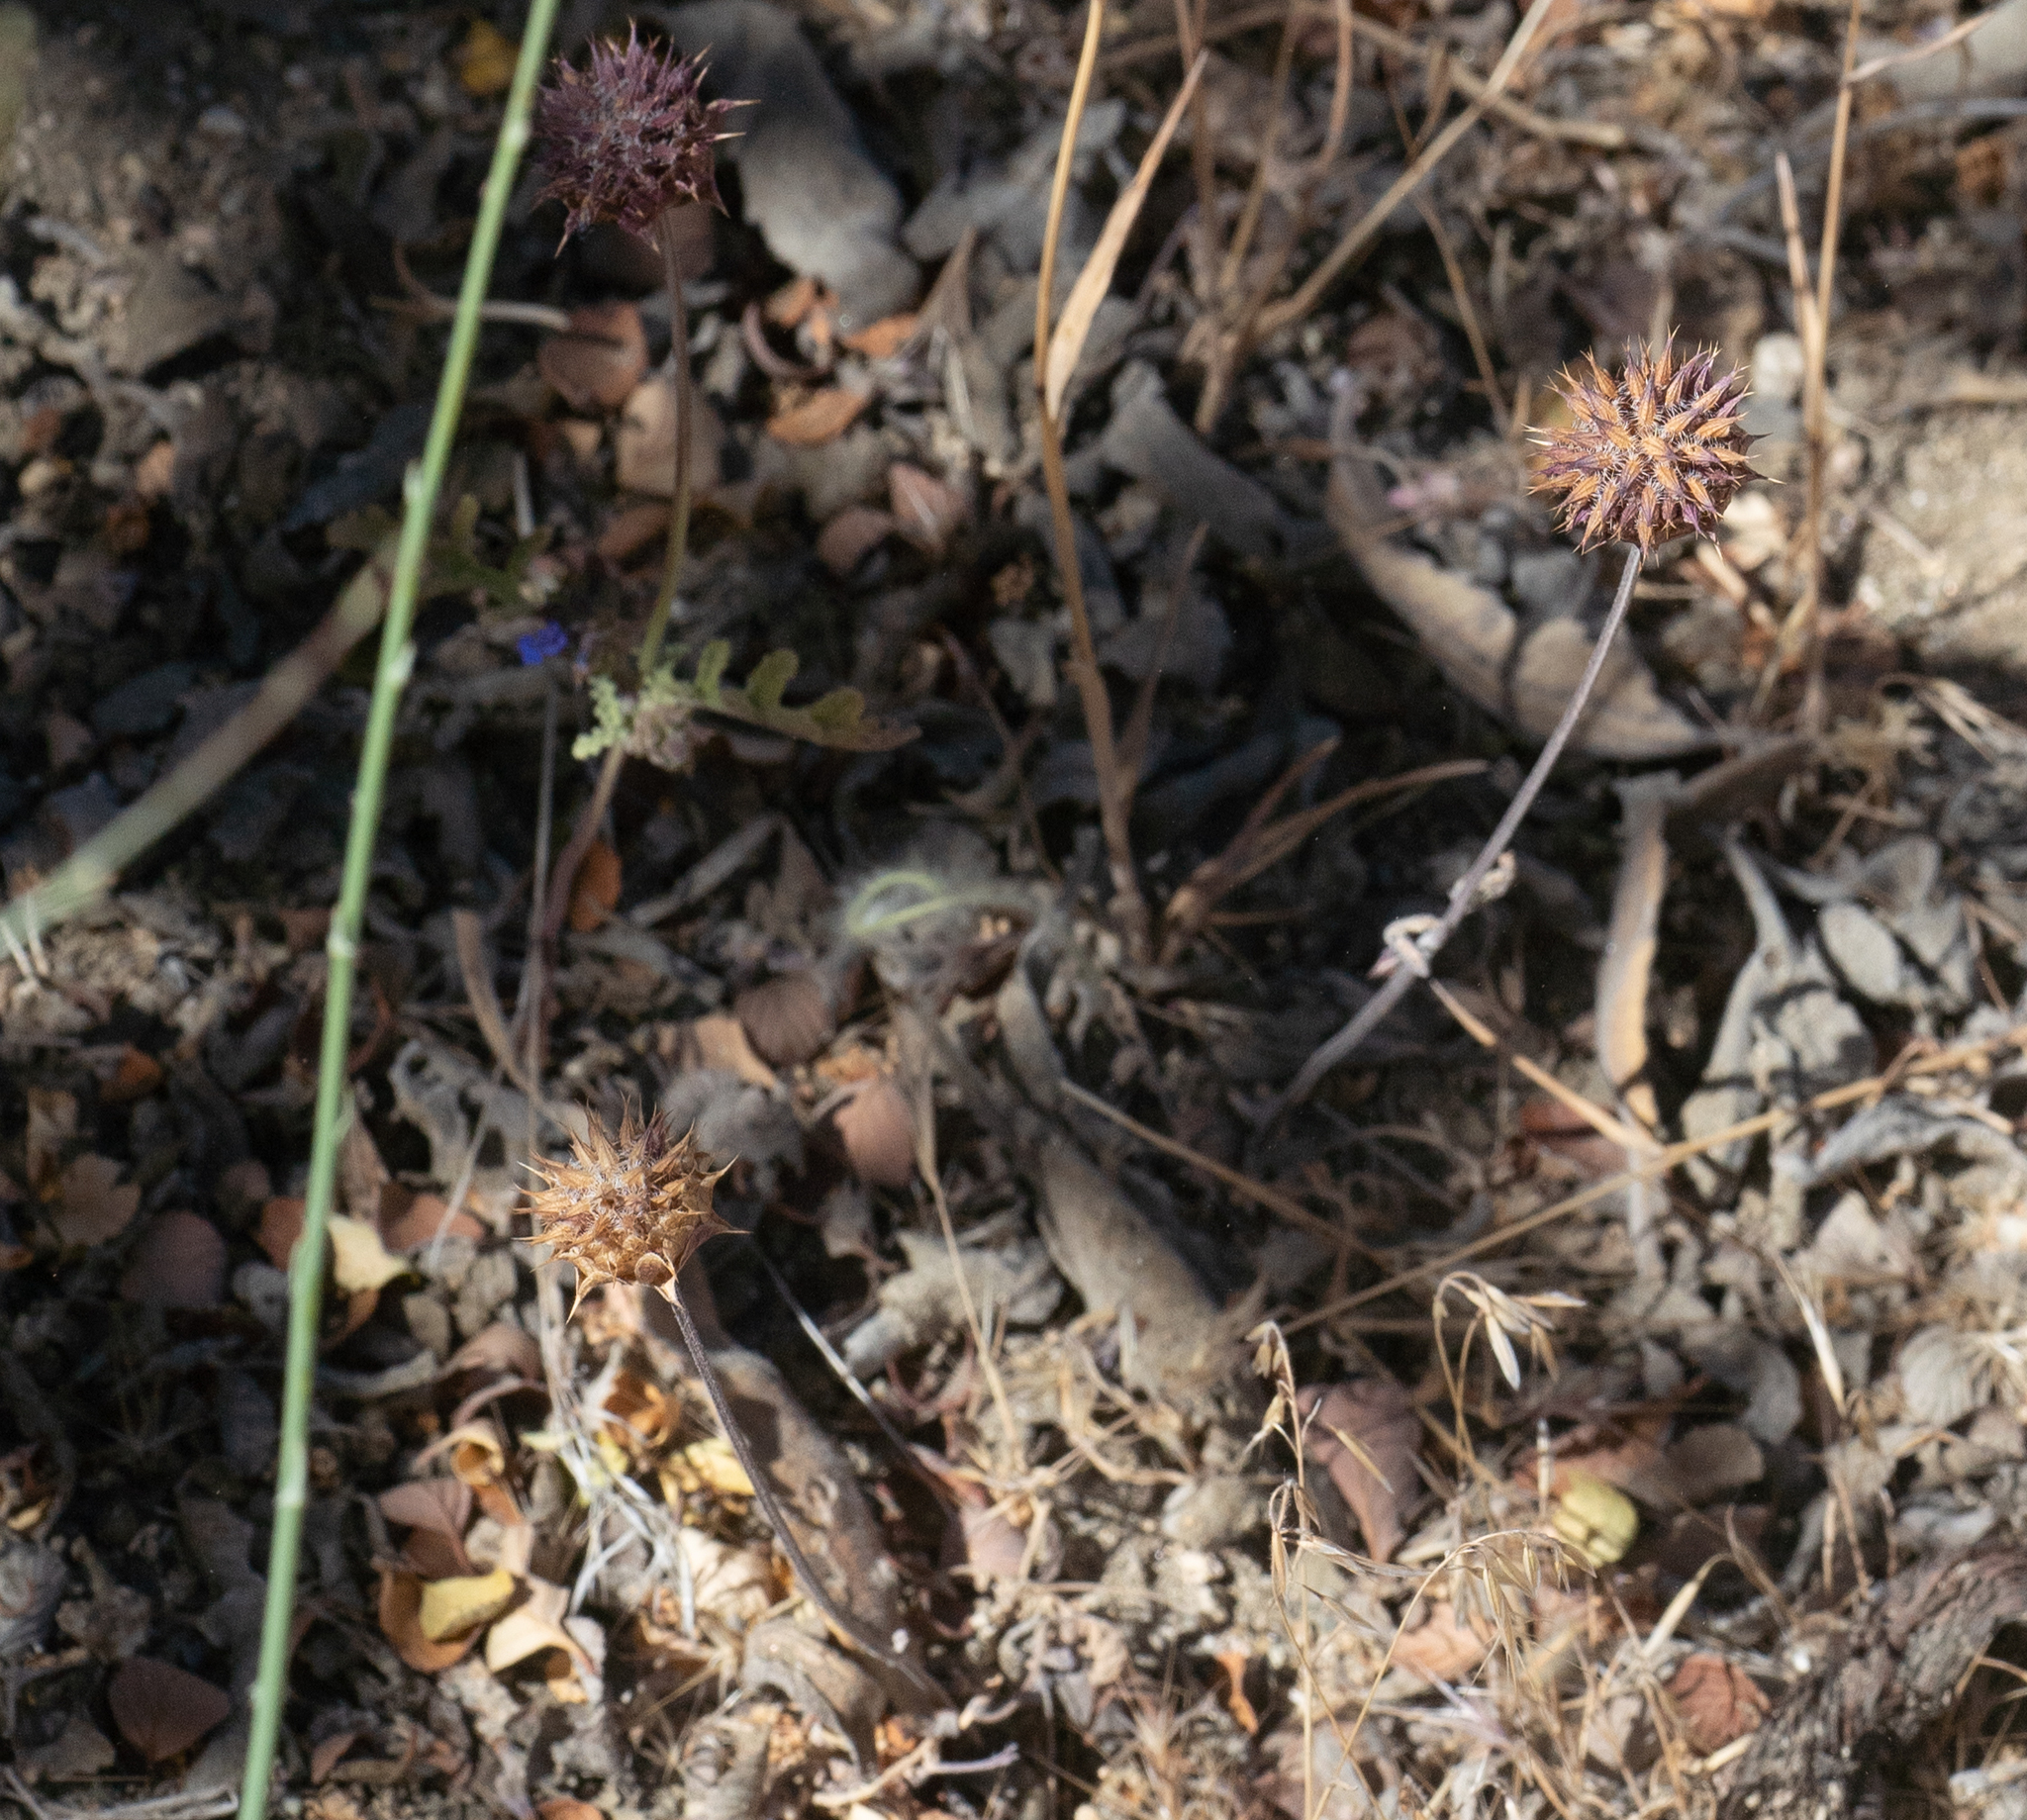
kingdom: Plantae
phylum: Tracheophyta
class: Magnoliopsida
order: Lamiales
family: Lamiaceae
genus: Salvia
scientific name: Salvia columbariae
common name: Chia
